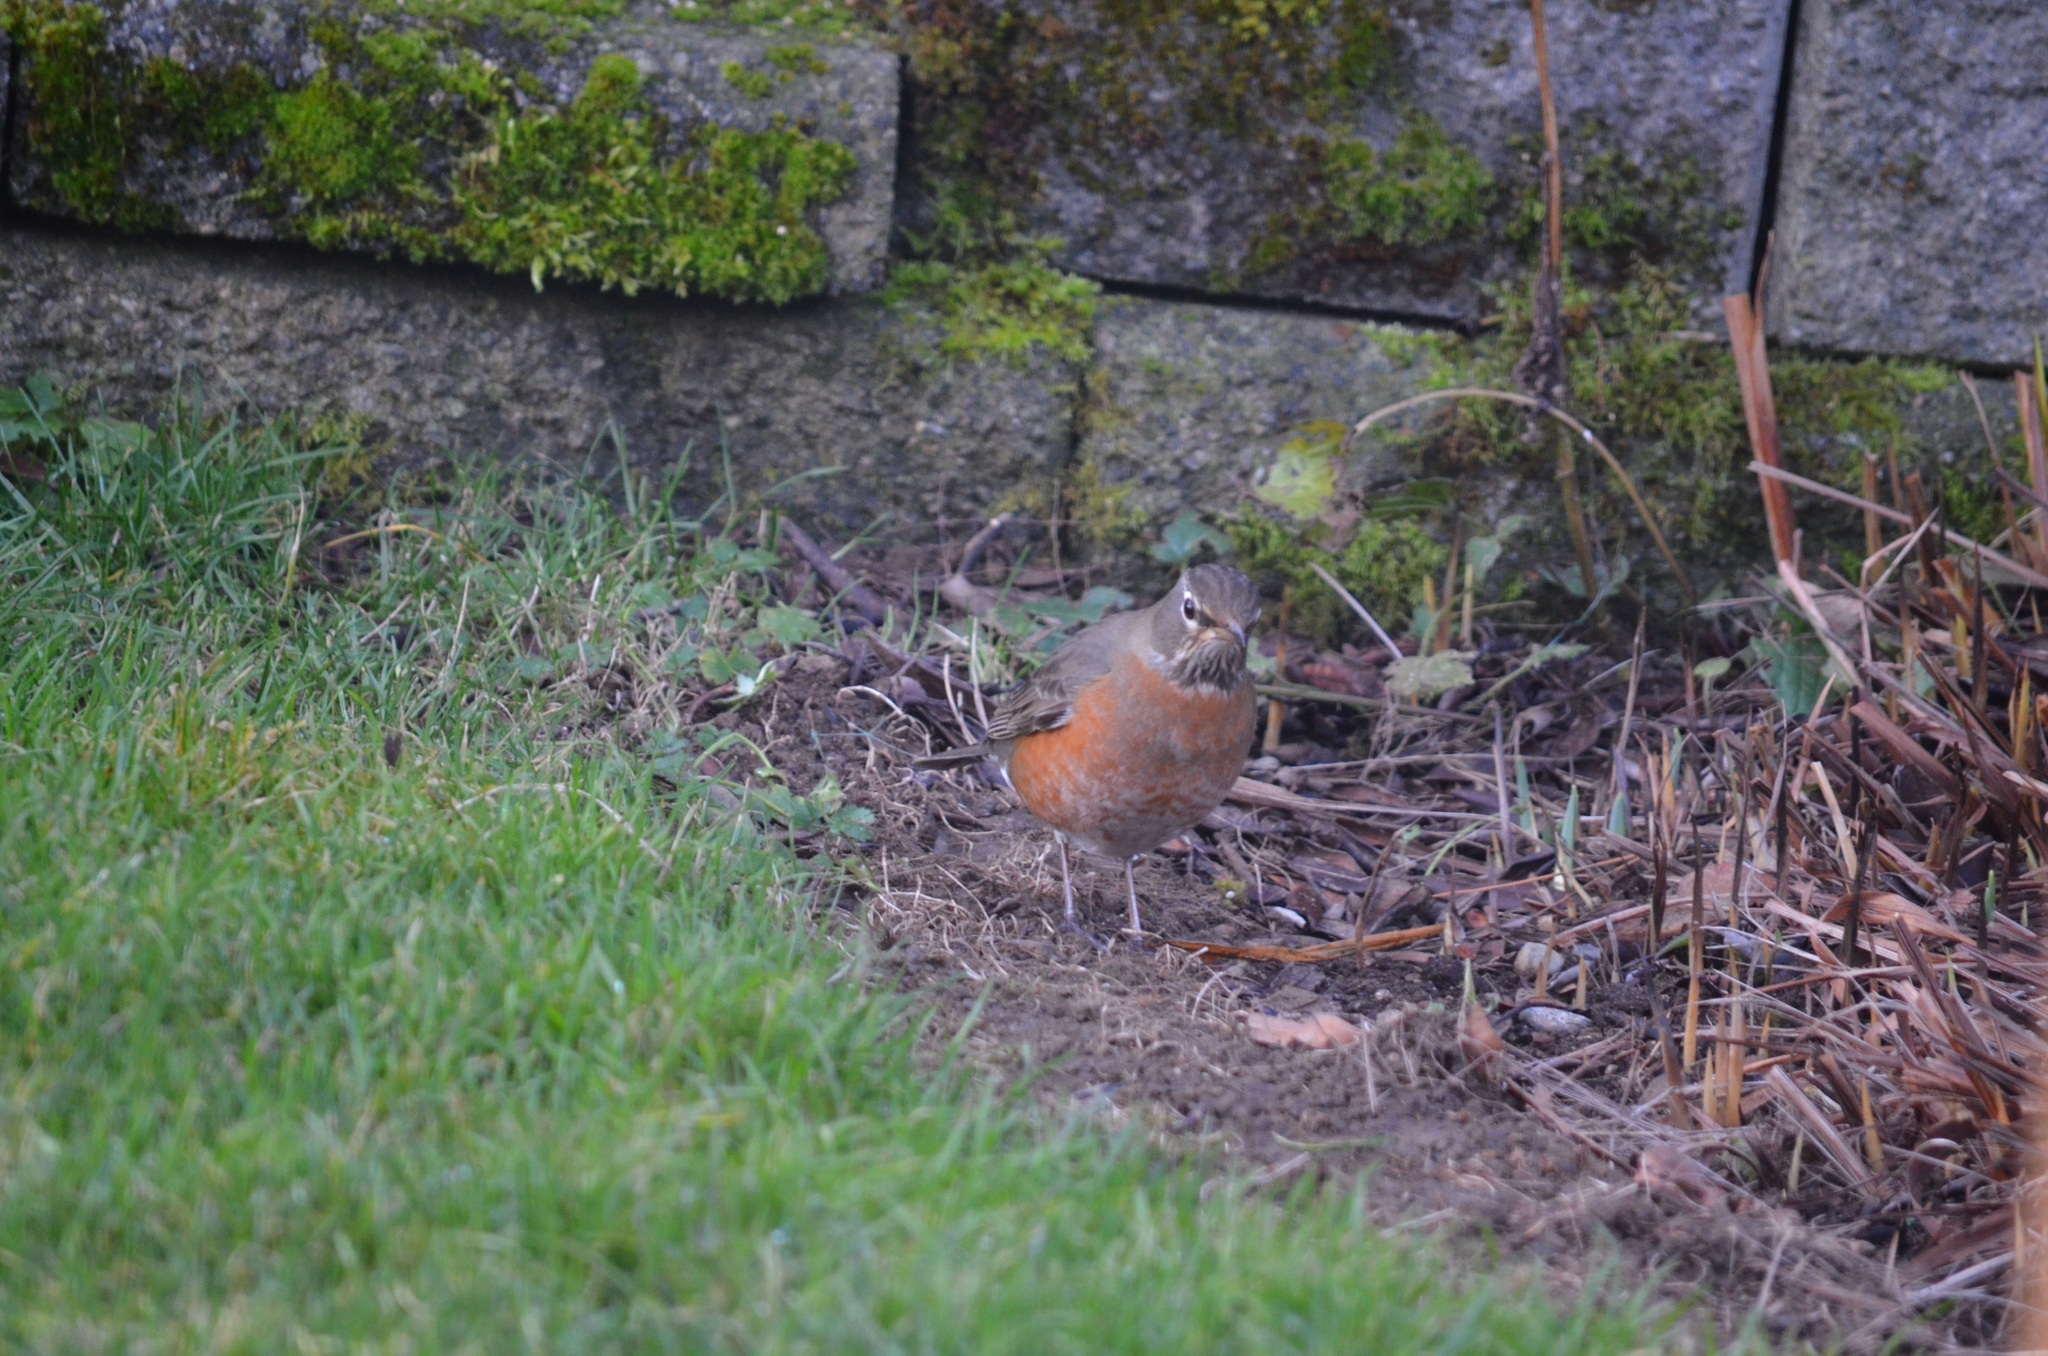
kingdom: Animalia
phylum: Chordata
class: Aves
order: Passeriformes
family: Turdidae
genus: Turdus
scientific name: Turdus migratorius
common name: American robin
